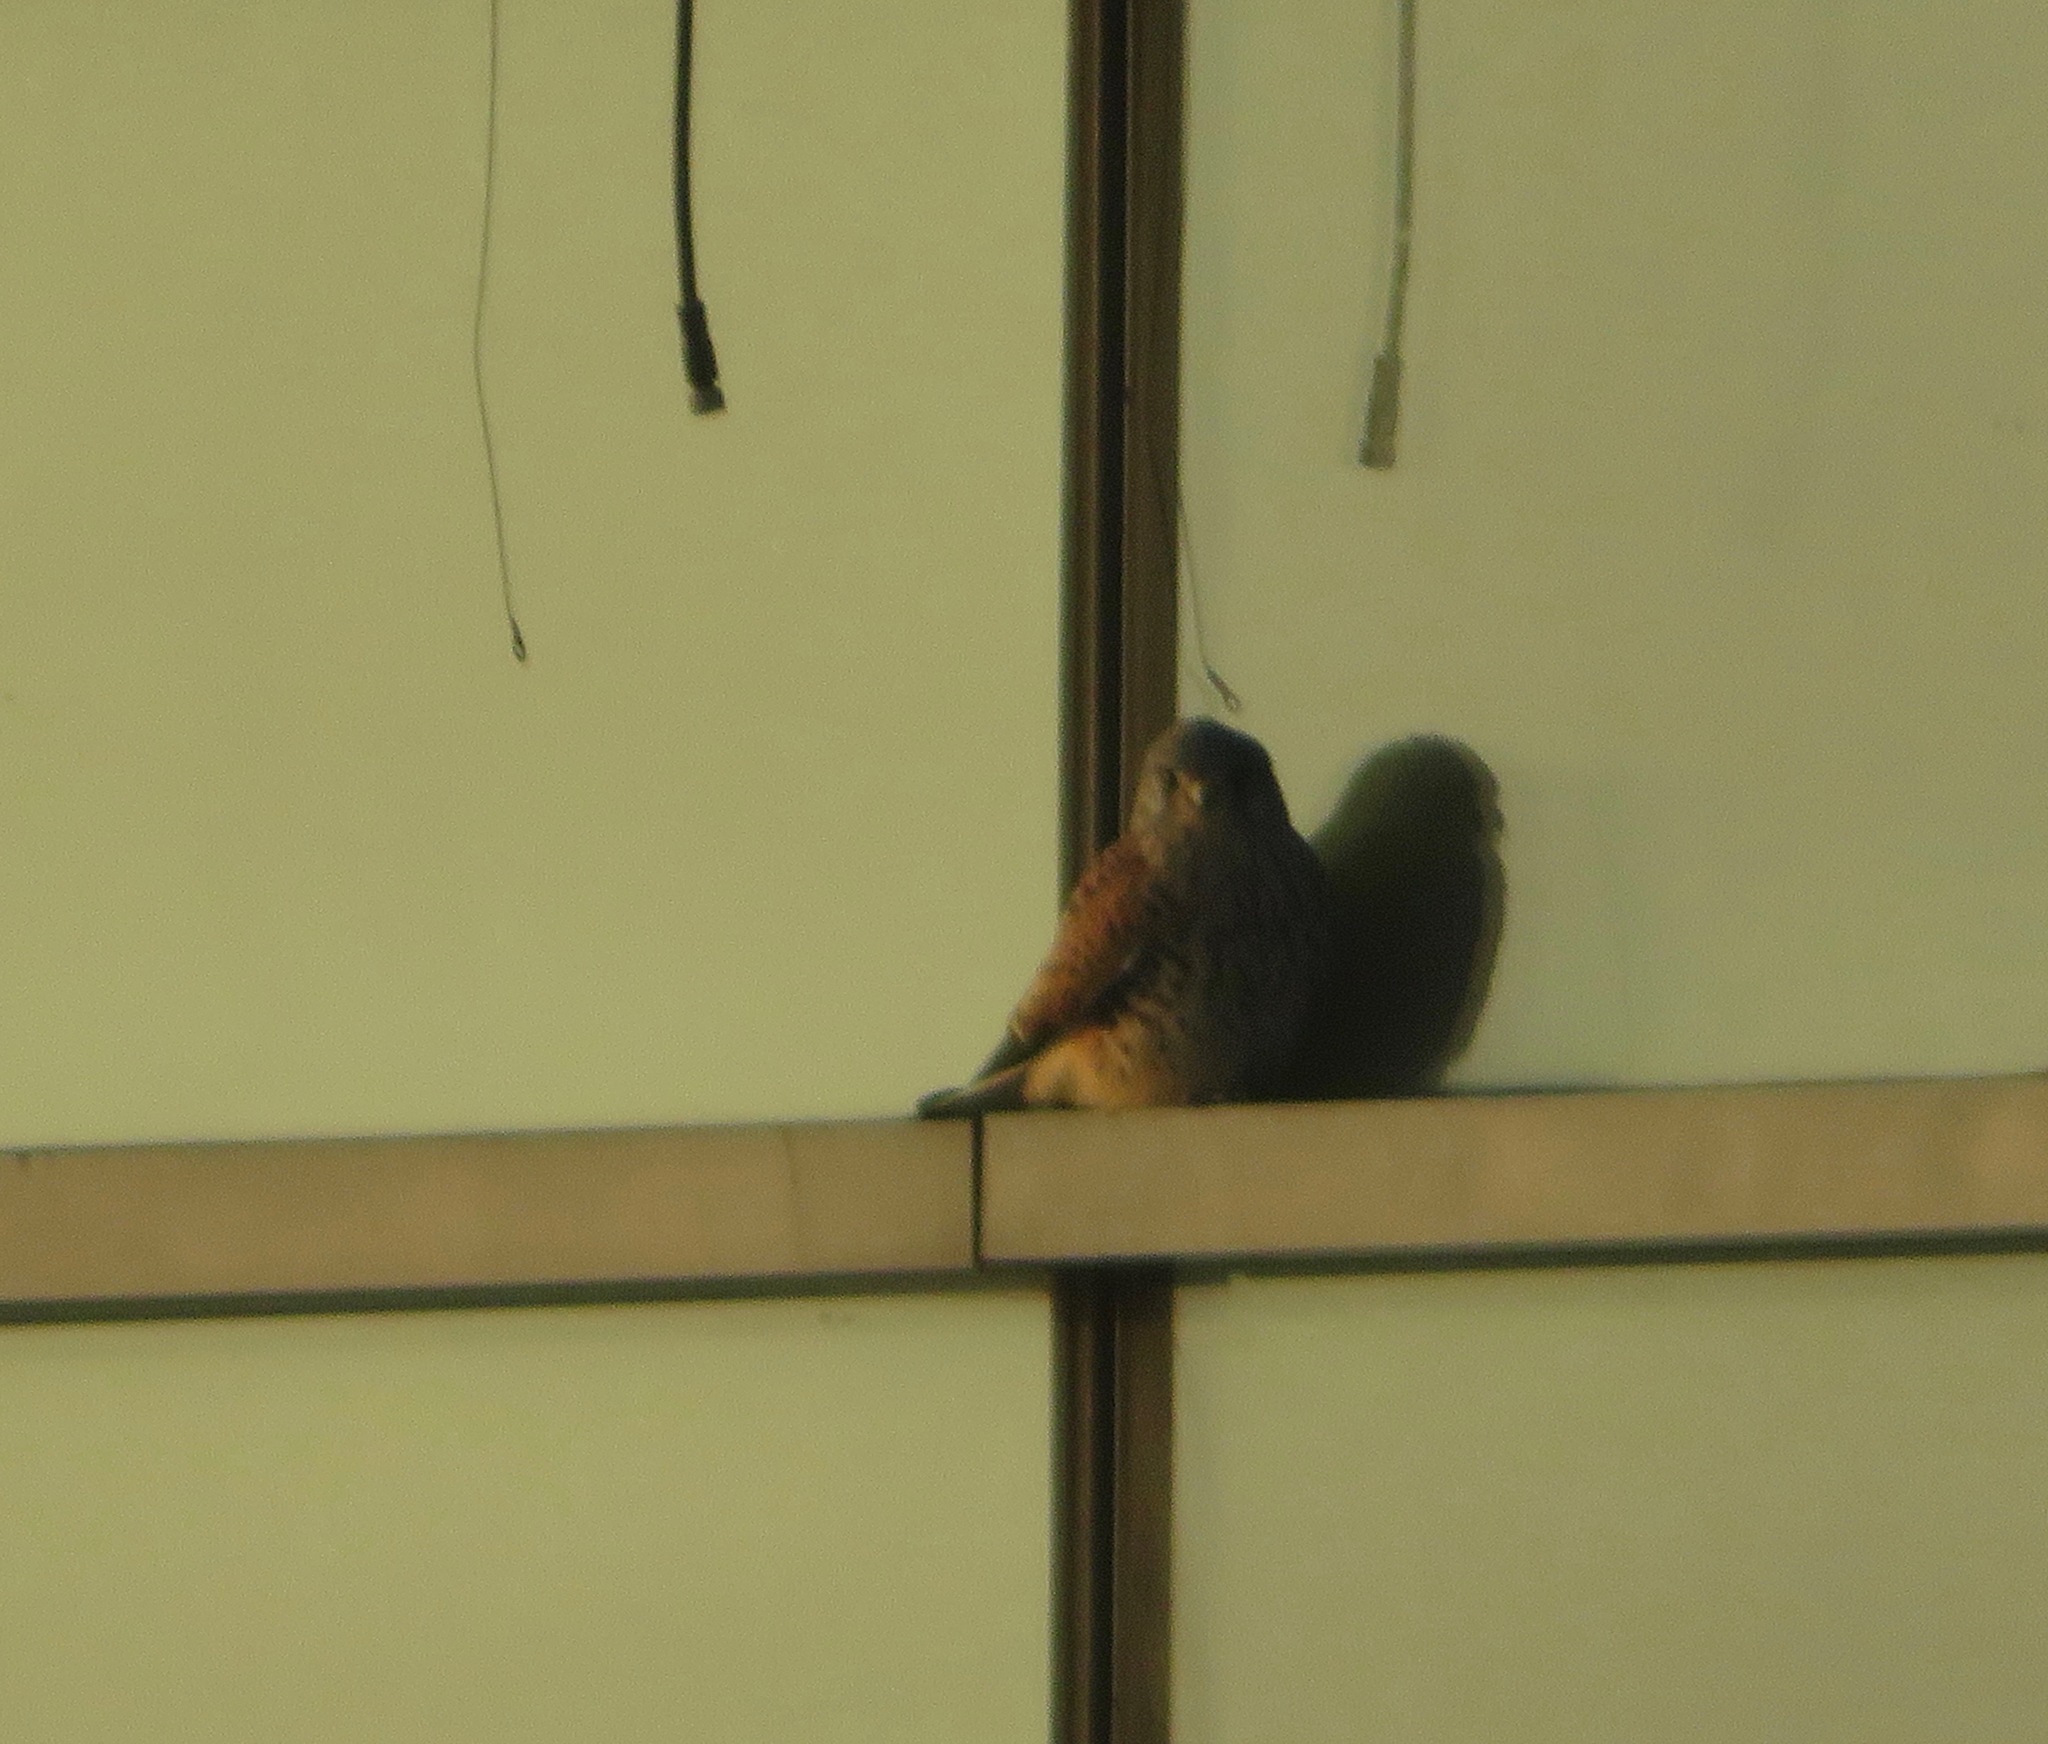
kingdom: Animalia
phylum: Chordata
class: Aves
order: Falconiformes
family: Falconidae
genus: Falco
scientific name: Falco tinnunculus
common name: Common kestrel
